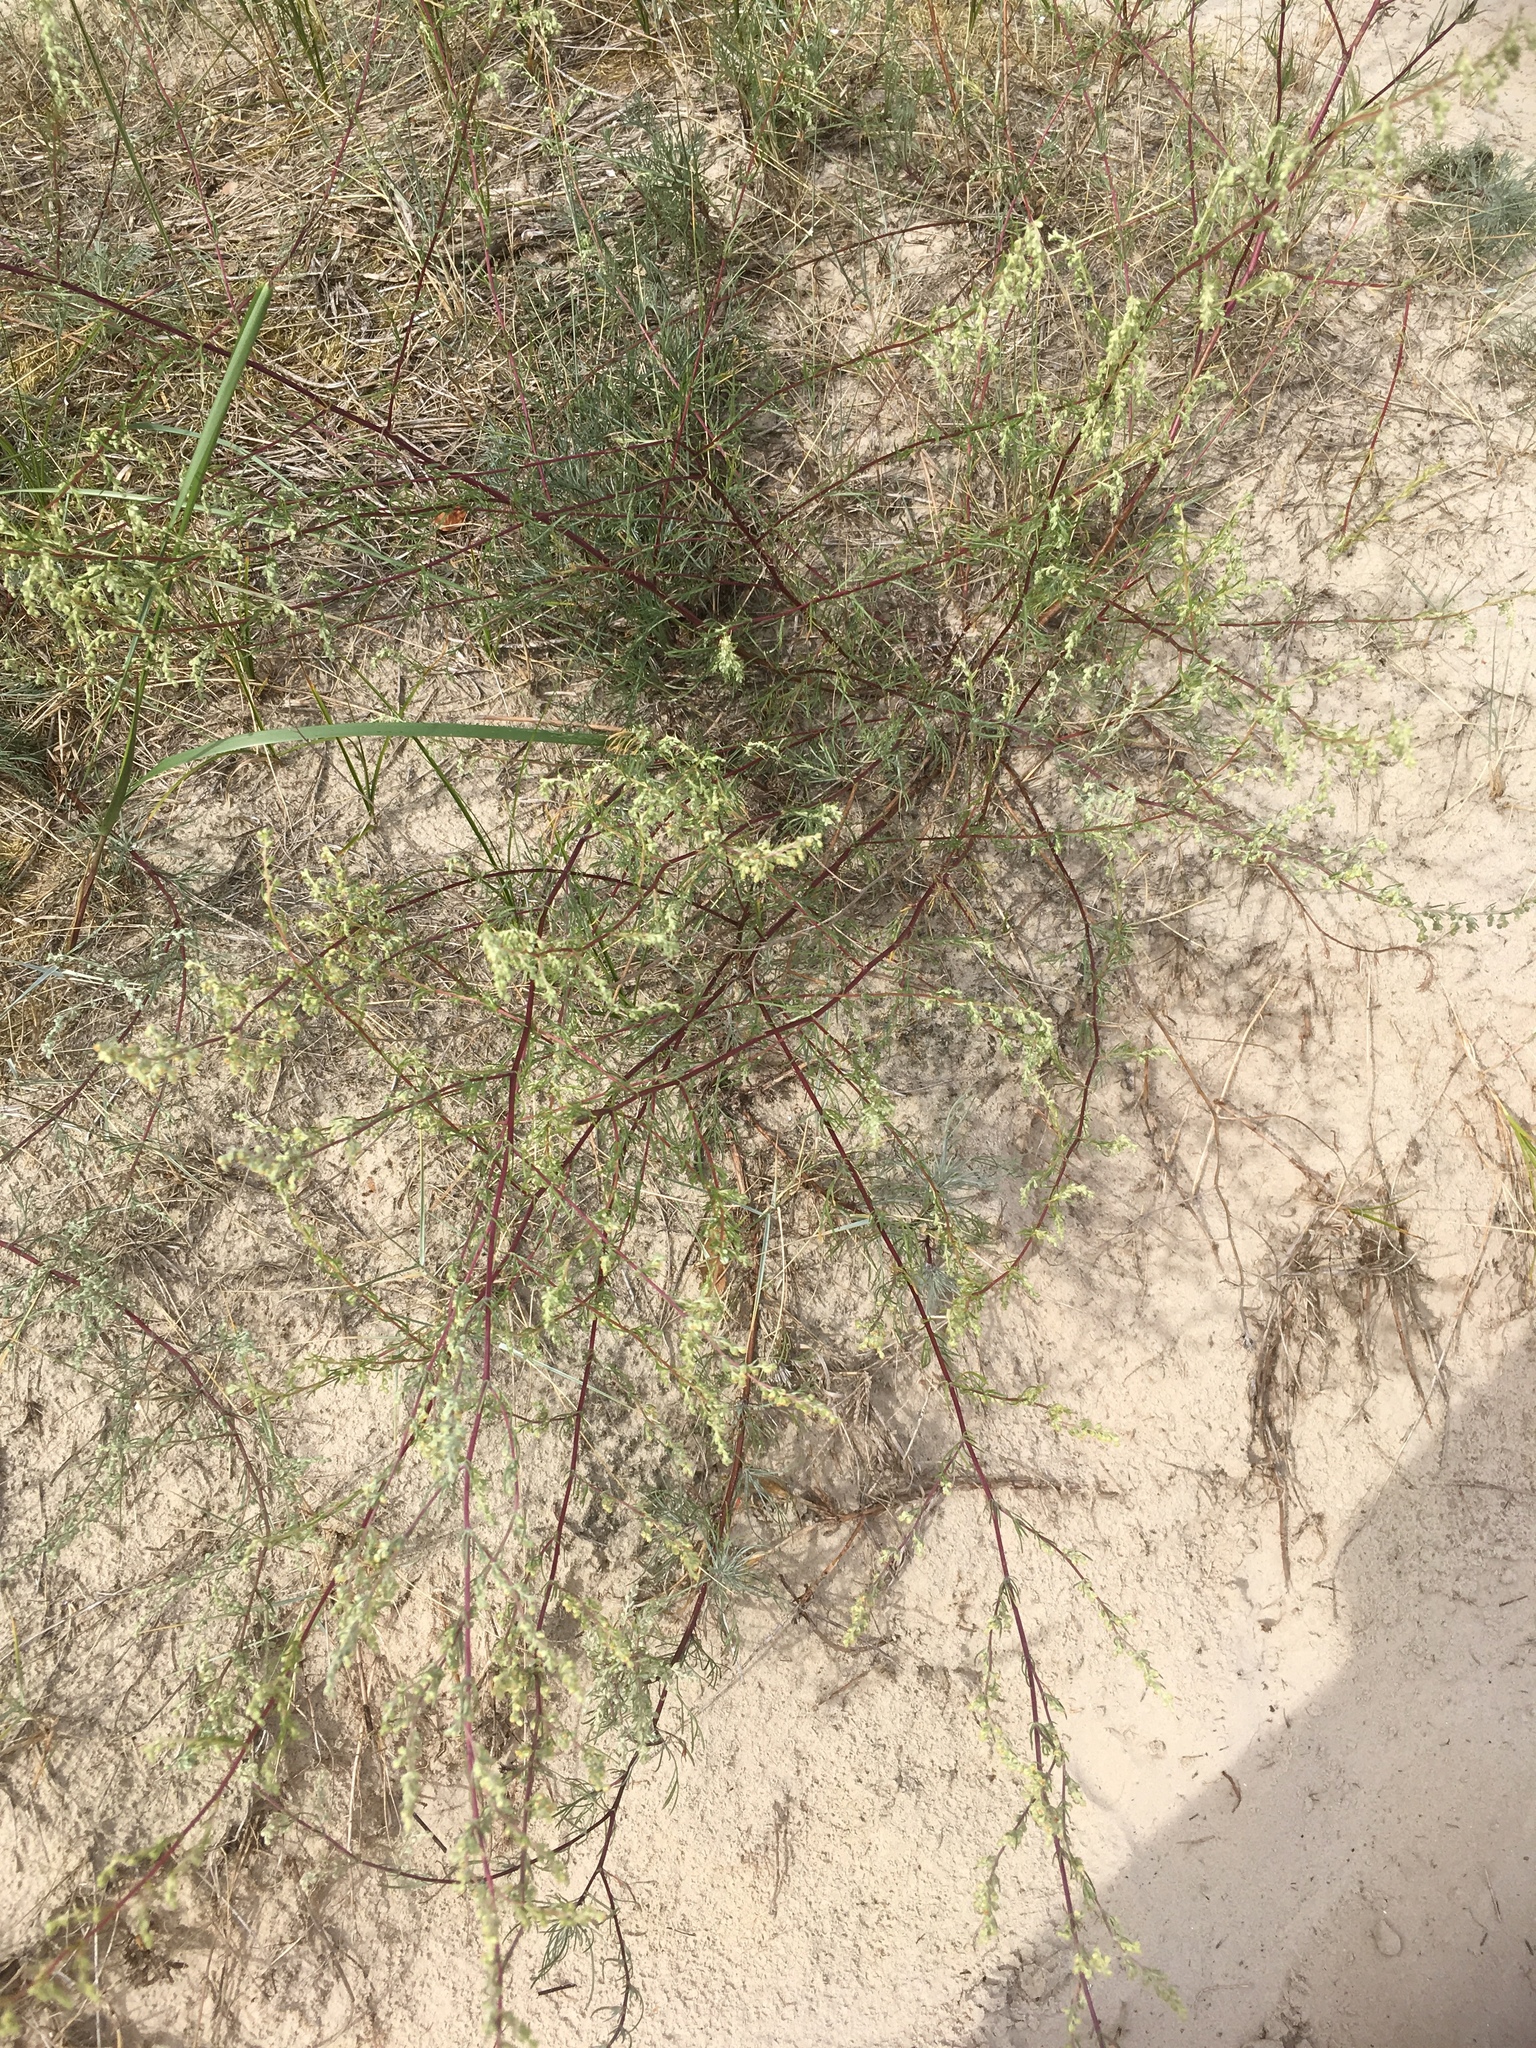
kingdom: Plantae
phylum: Tracheophyta
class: Magnoliopsida
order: Asterales
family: Asteraceae
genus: Artemisia
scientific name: Artemisia campestris
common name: Field wormwood
